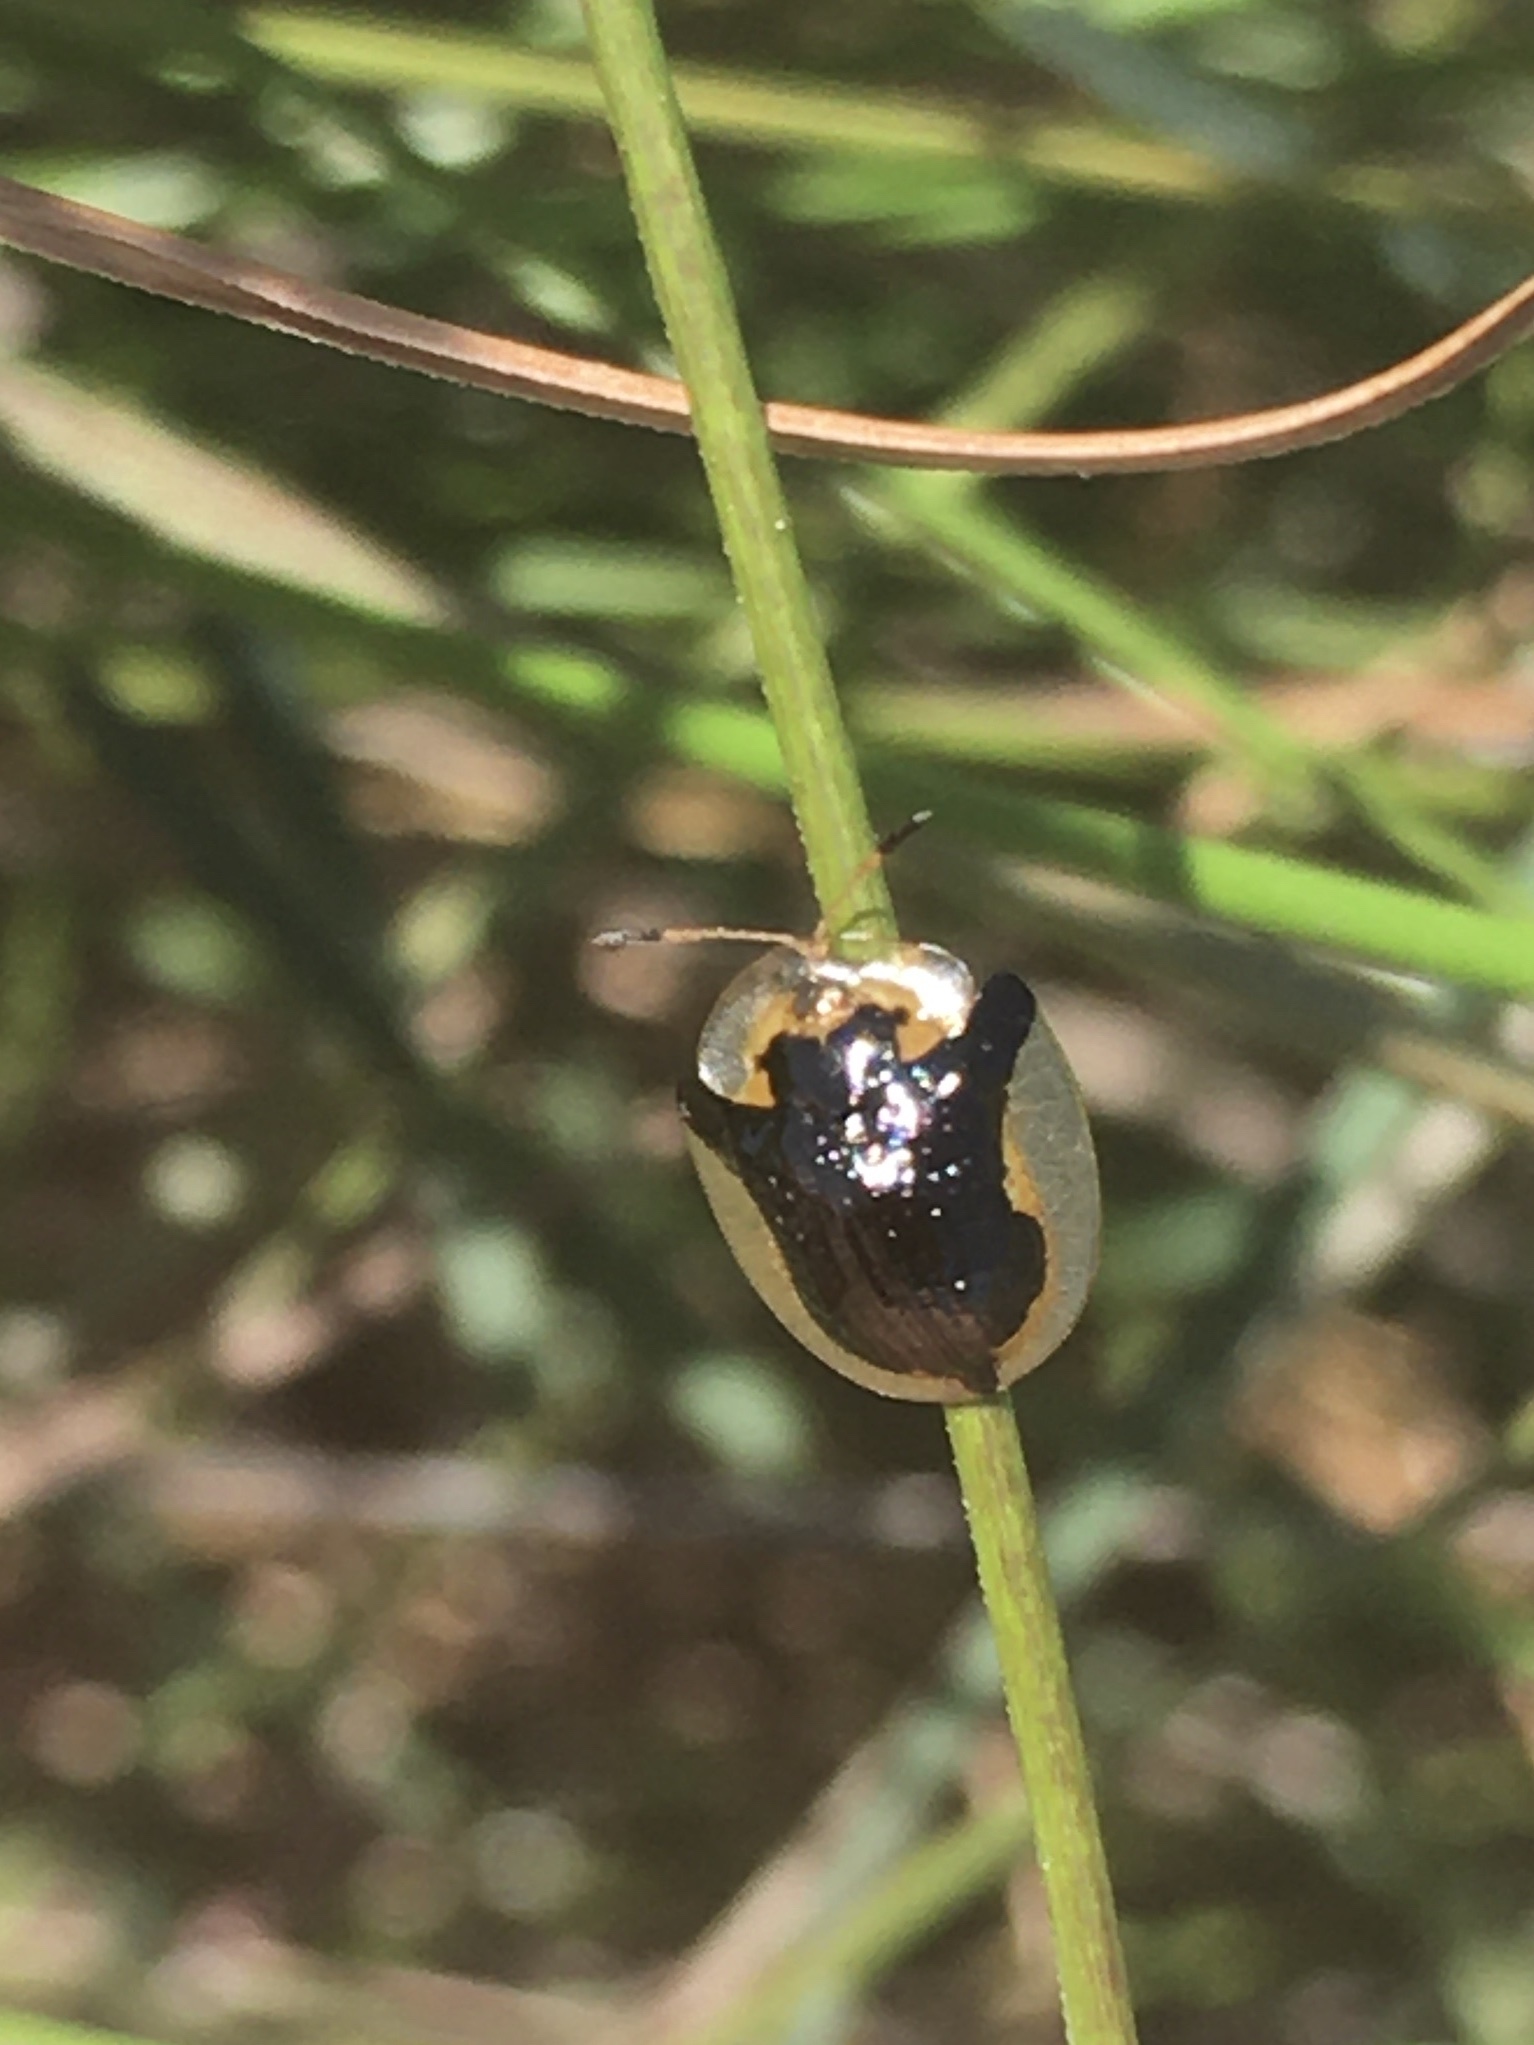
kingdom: Animalia
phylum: Arthropoda
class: Insecta
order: Coleoptera
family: Chrysomelidae
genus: Deloyala
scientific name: Deloyala guttata
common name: Mottled tortoise beetle
